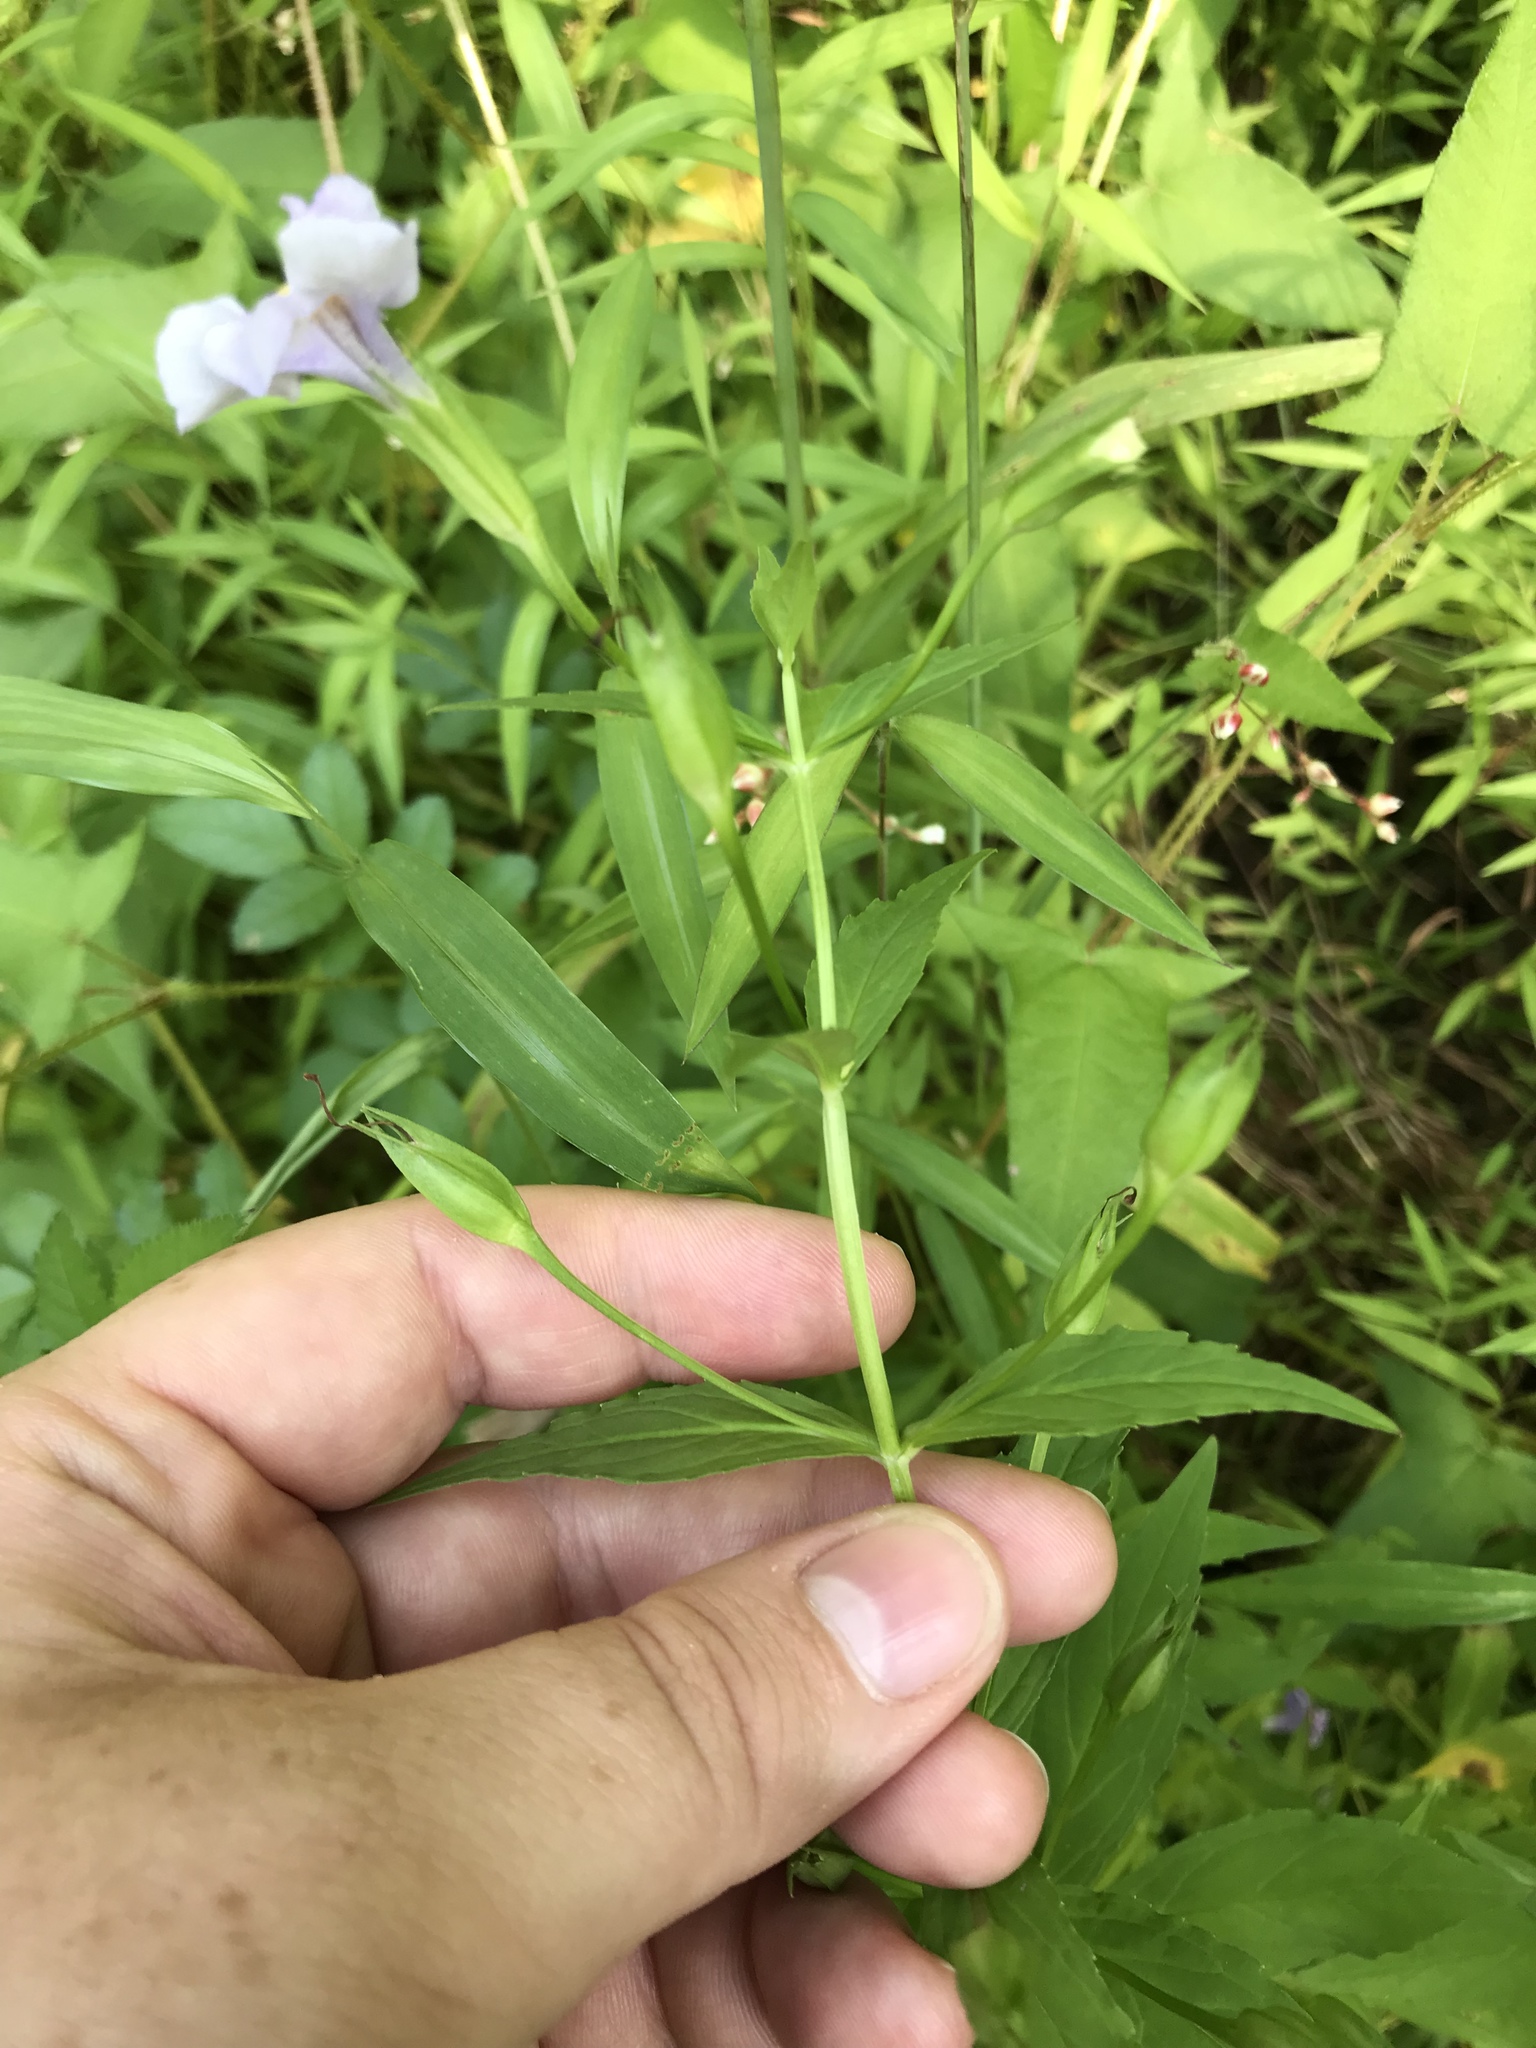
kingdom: Plantae
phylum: Tracheophyta
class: Magnoliopsida
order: Lamiales
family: Phrymaceae
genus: Mimulus
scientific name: Mimulus ringens
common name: Allegheny monkeyflower
